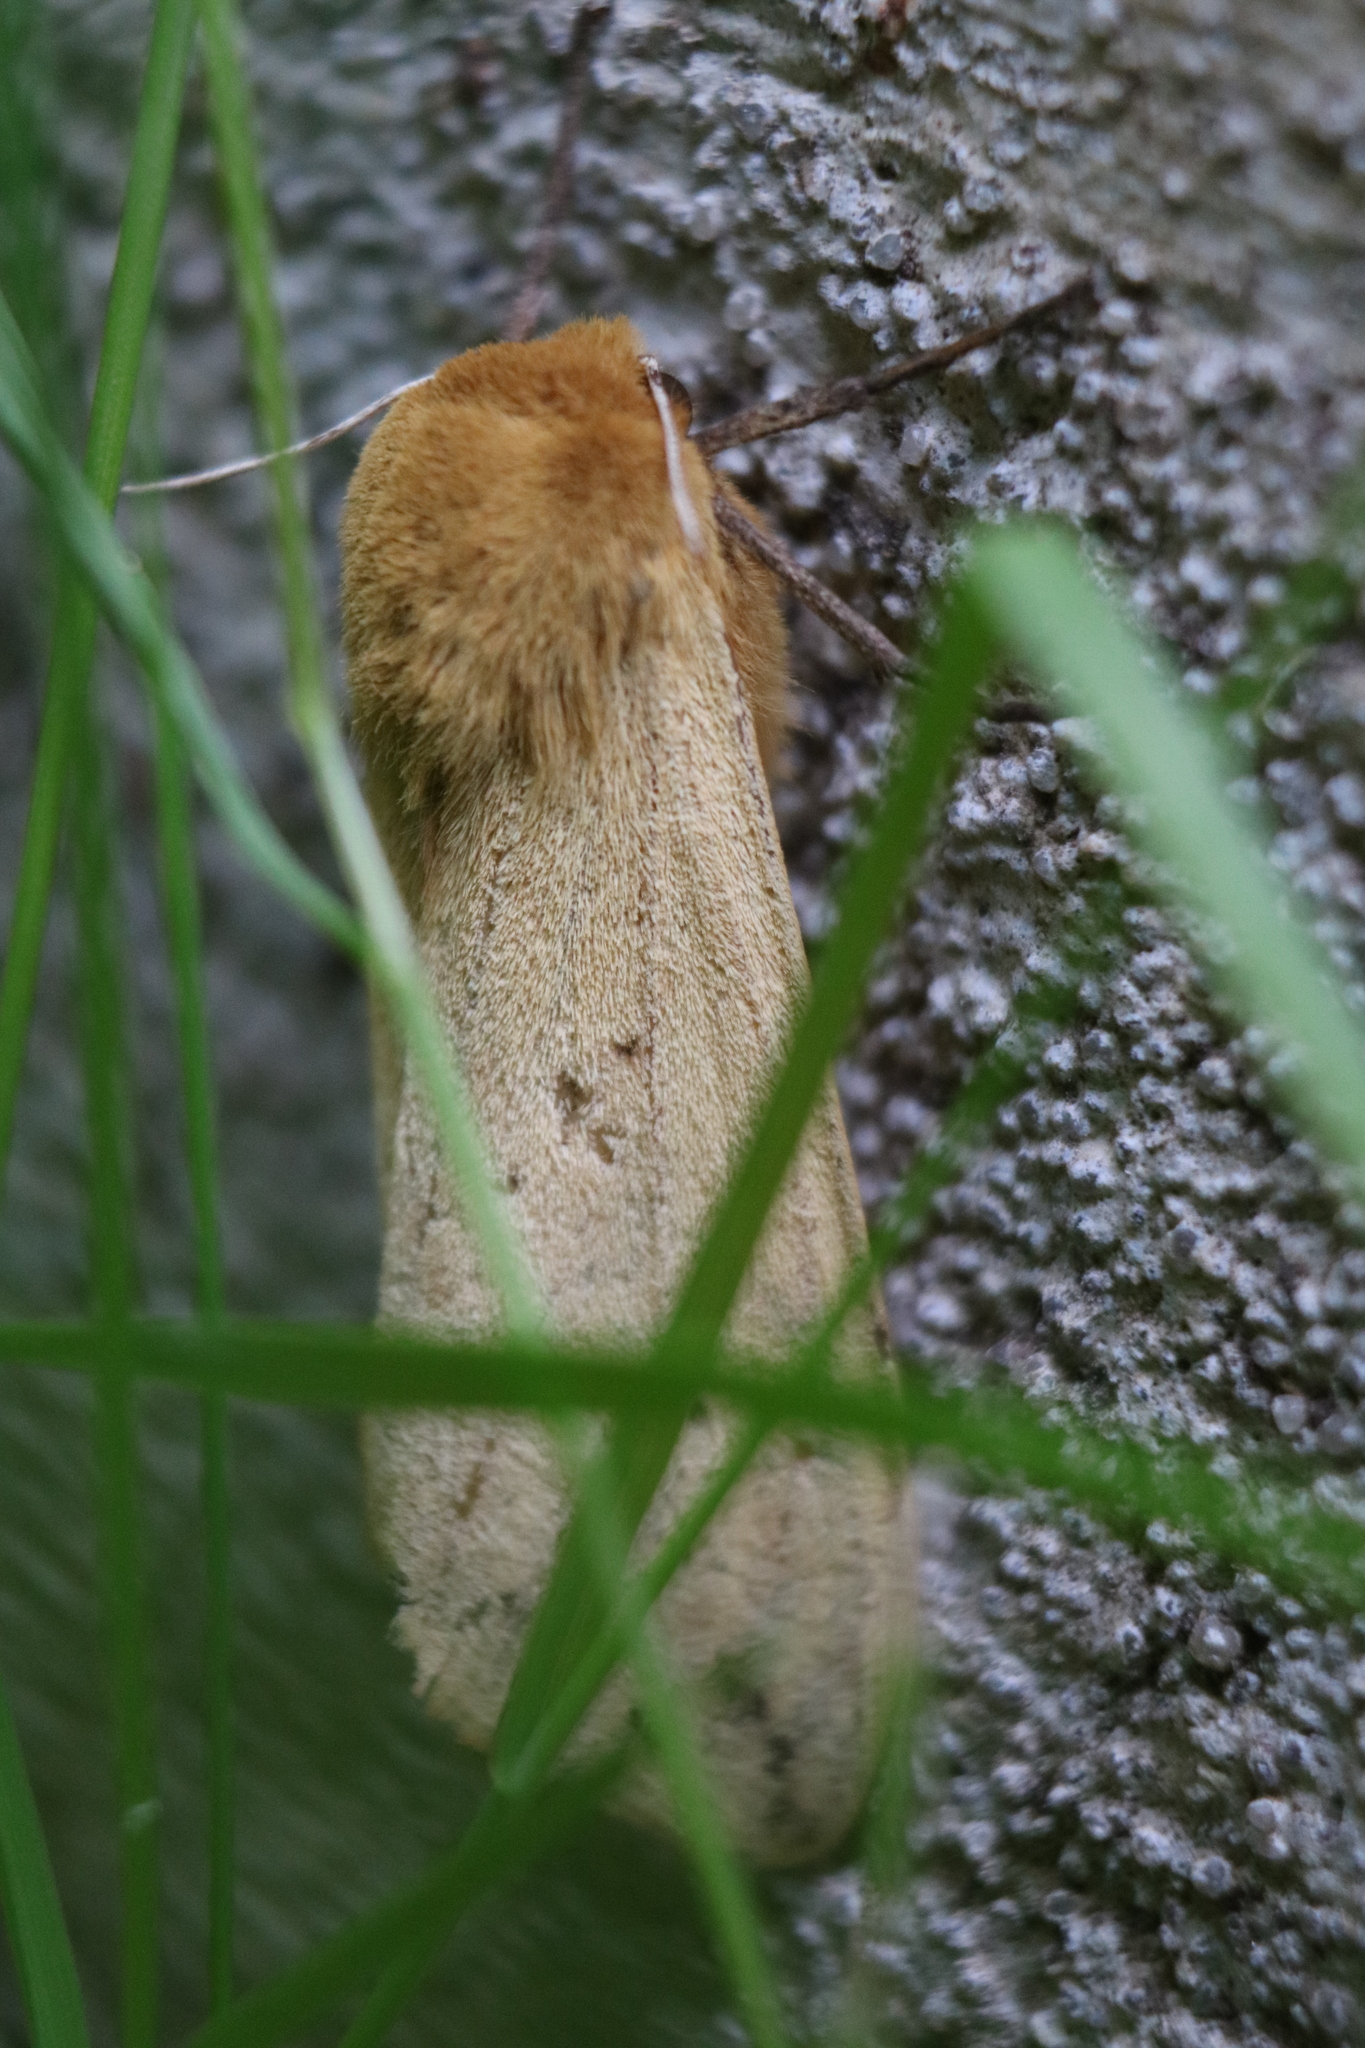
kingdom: Animalia
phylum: Arthropoda
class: Insecta
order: Lepidoptera
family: Erebidae
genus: Pyrrharctia
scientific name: Pyrrharctia isabella
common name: Isabella tiger moth
